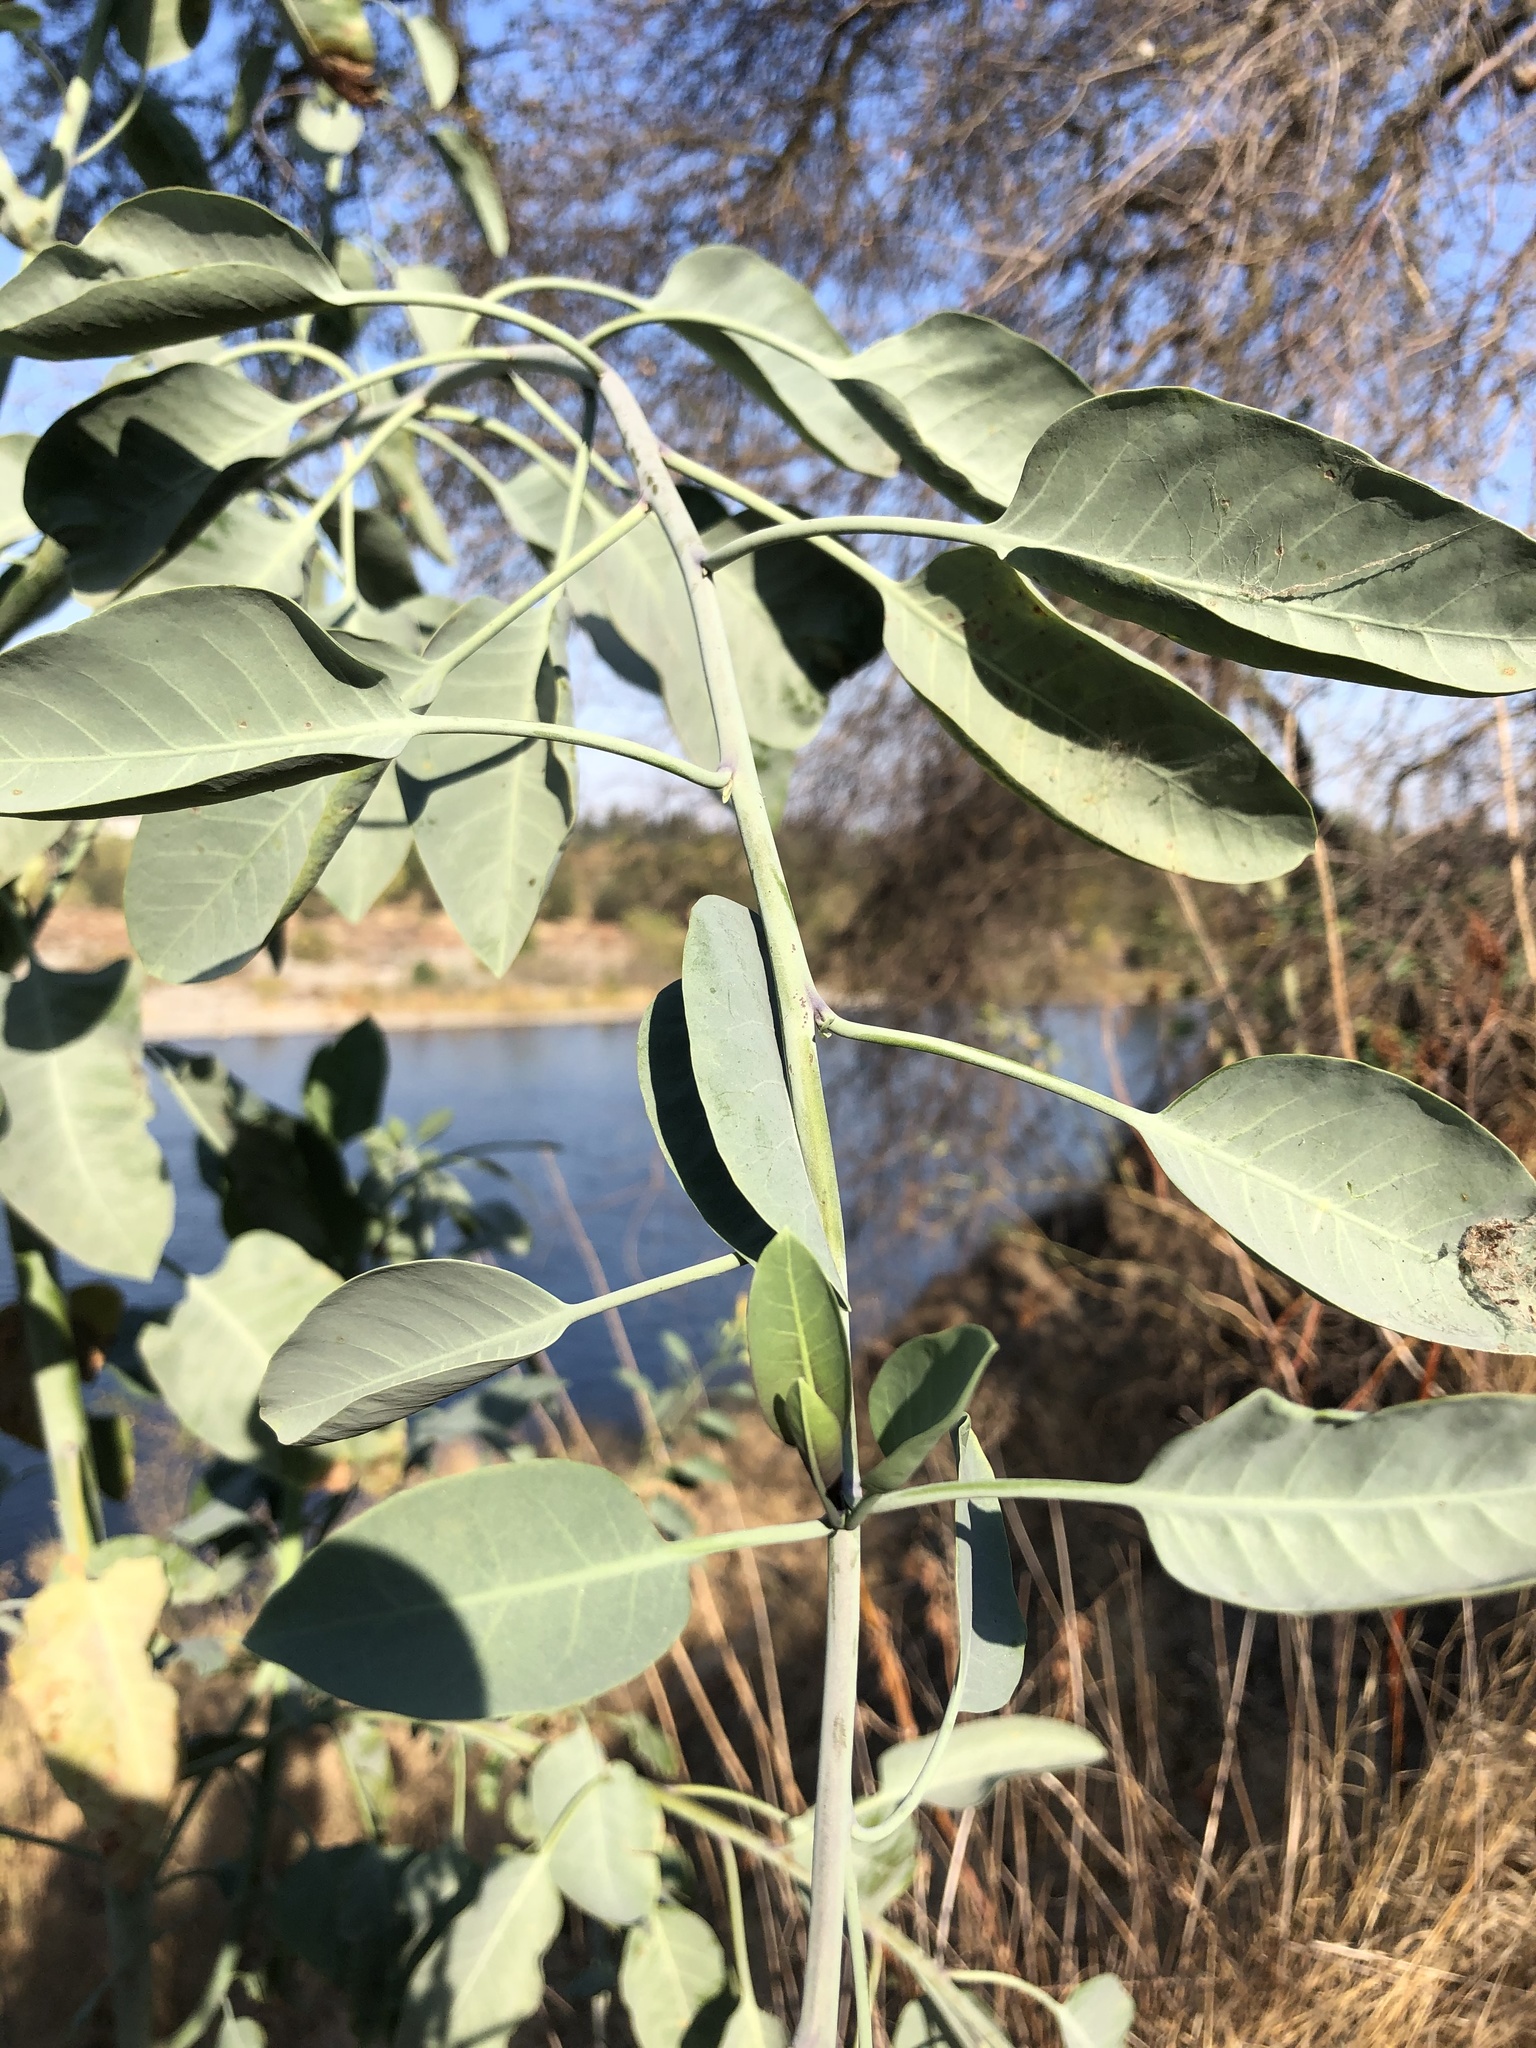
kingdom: Plantae
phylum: Tracheophyta
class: Magnoliopsida
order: Solanales
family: Solanaceae
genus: Nicotiana
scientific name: Nicotiana glauca
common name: Tree tobacco
